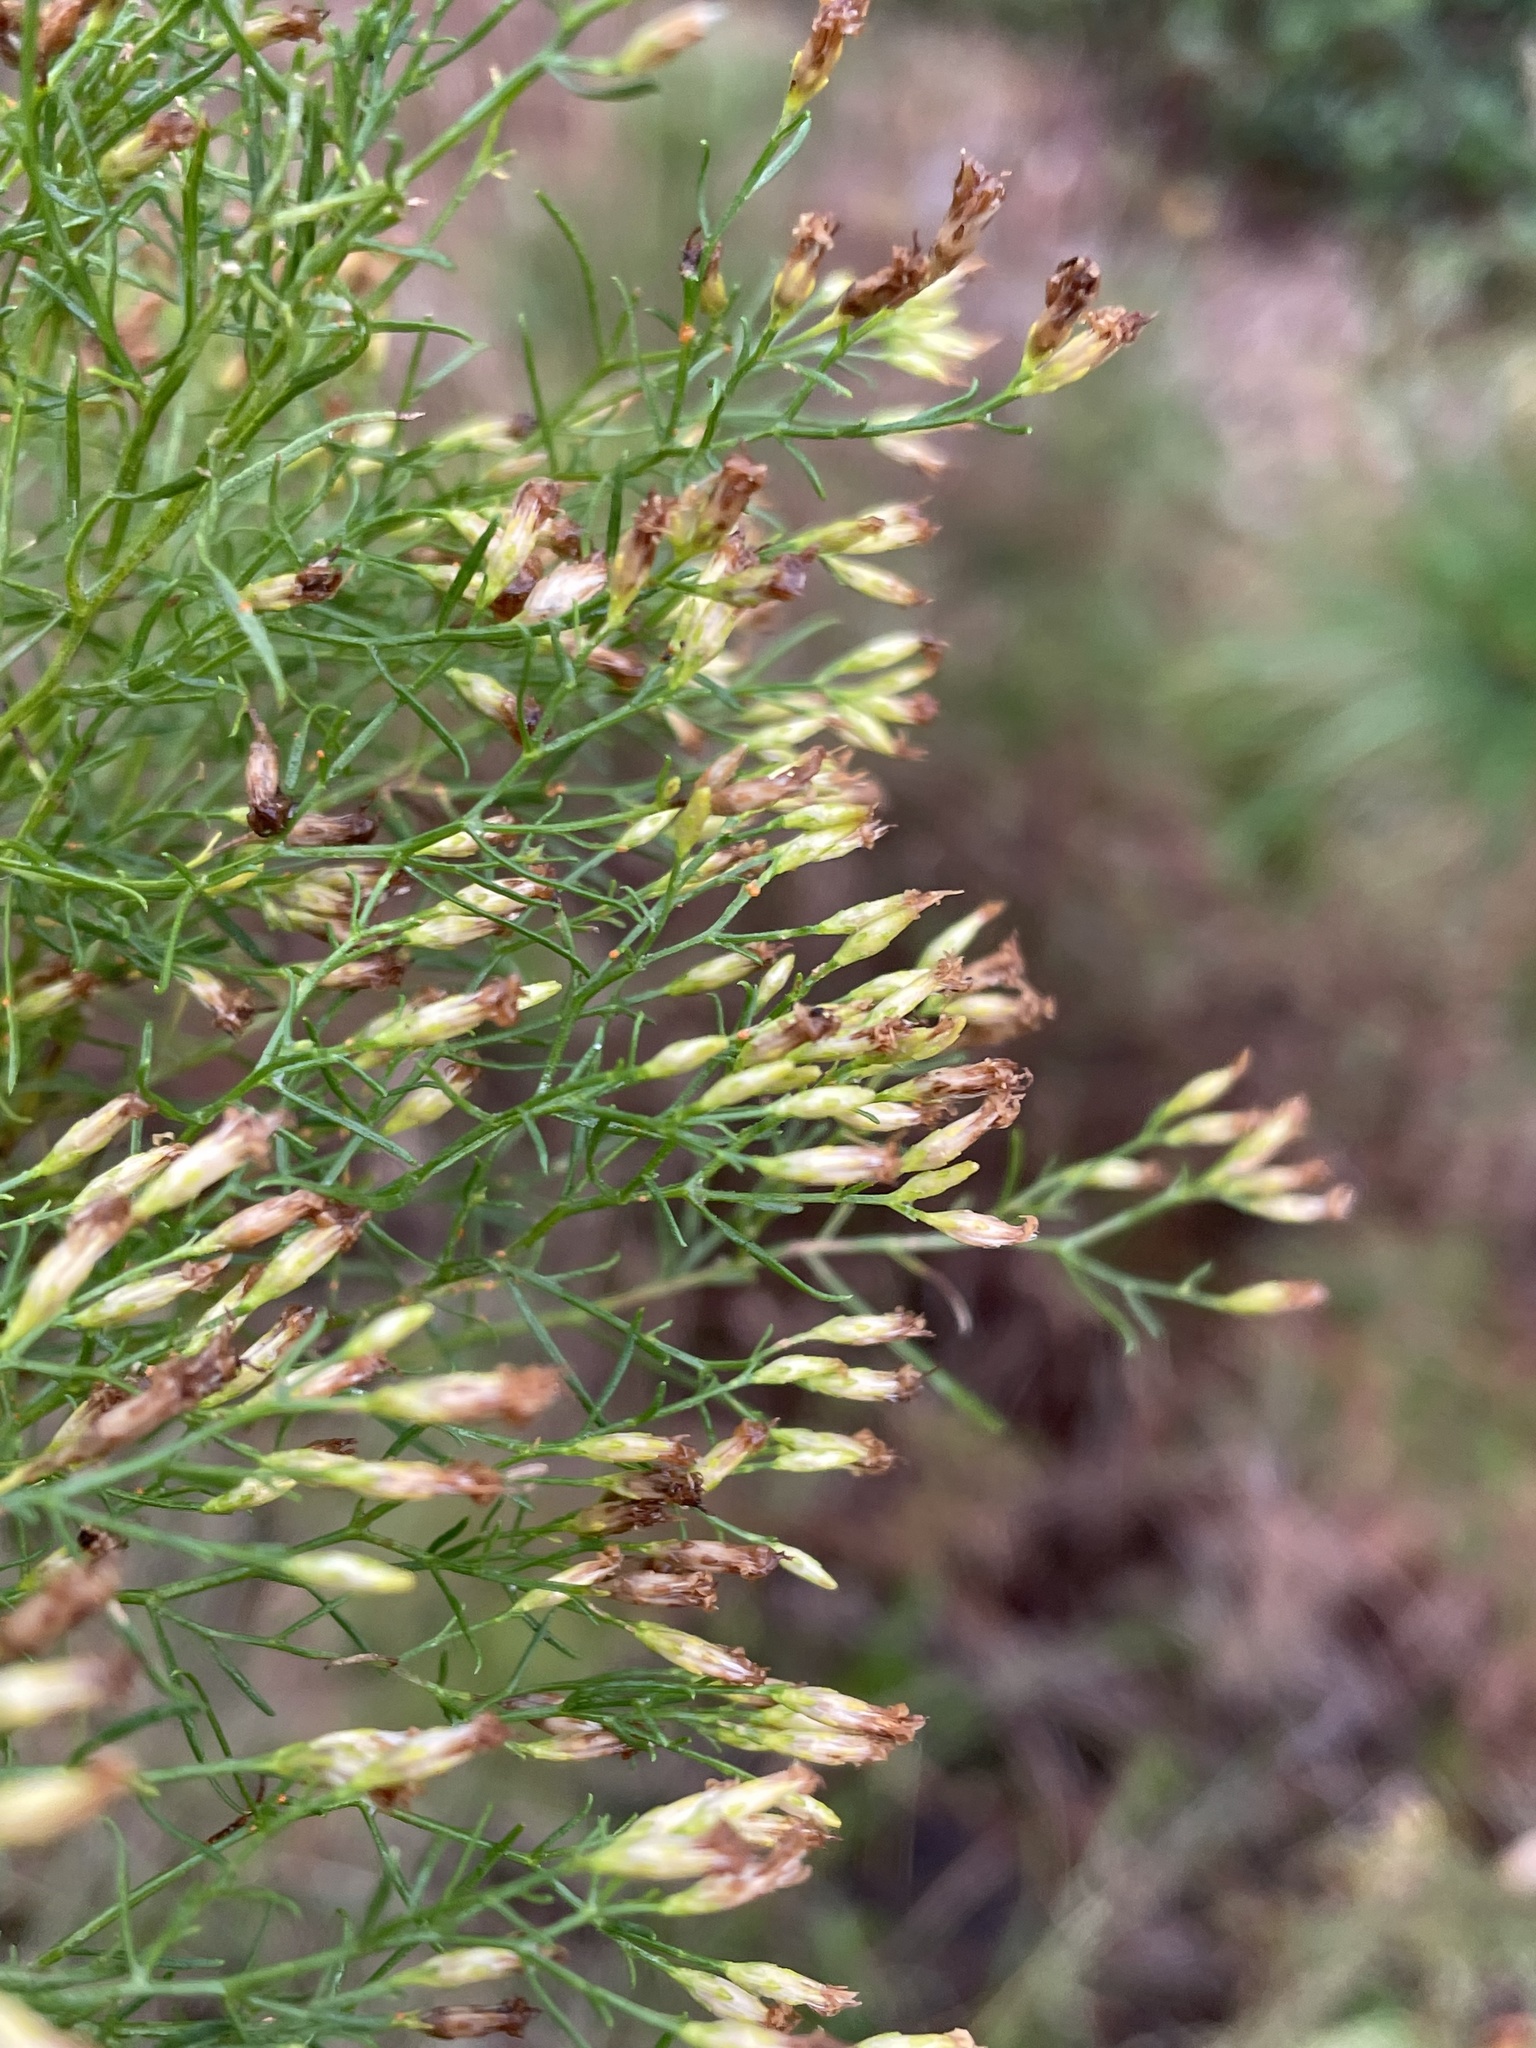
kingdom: Plantae
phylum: Tracheophyta
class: Magnoliopsida
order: Asterales
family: Asteraceae
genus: Euthamia
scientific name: Euthamia caroliniana
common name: Coastal plain goldentop
